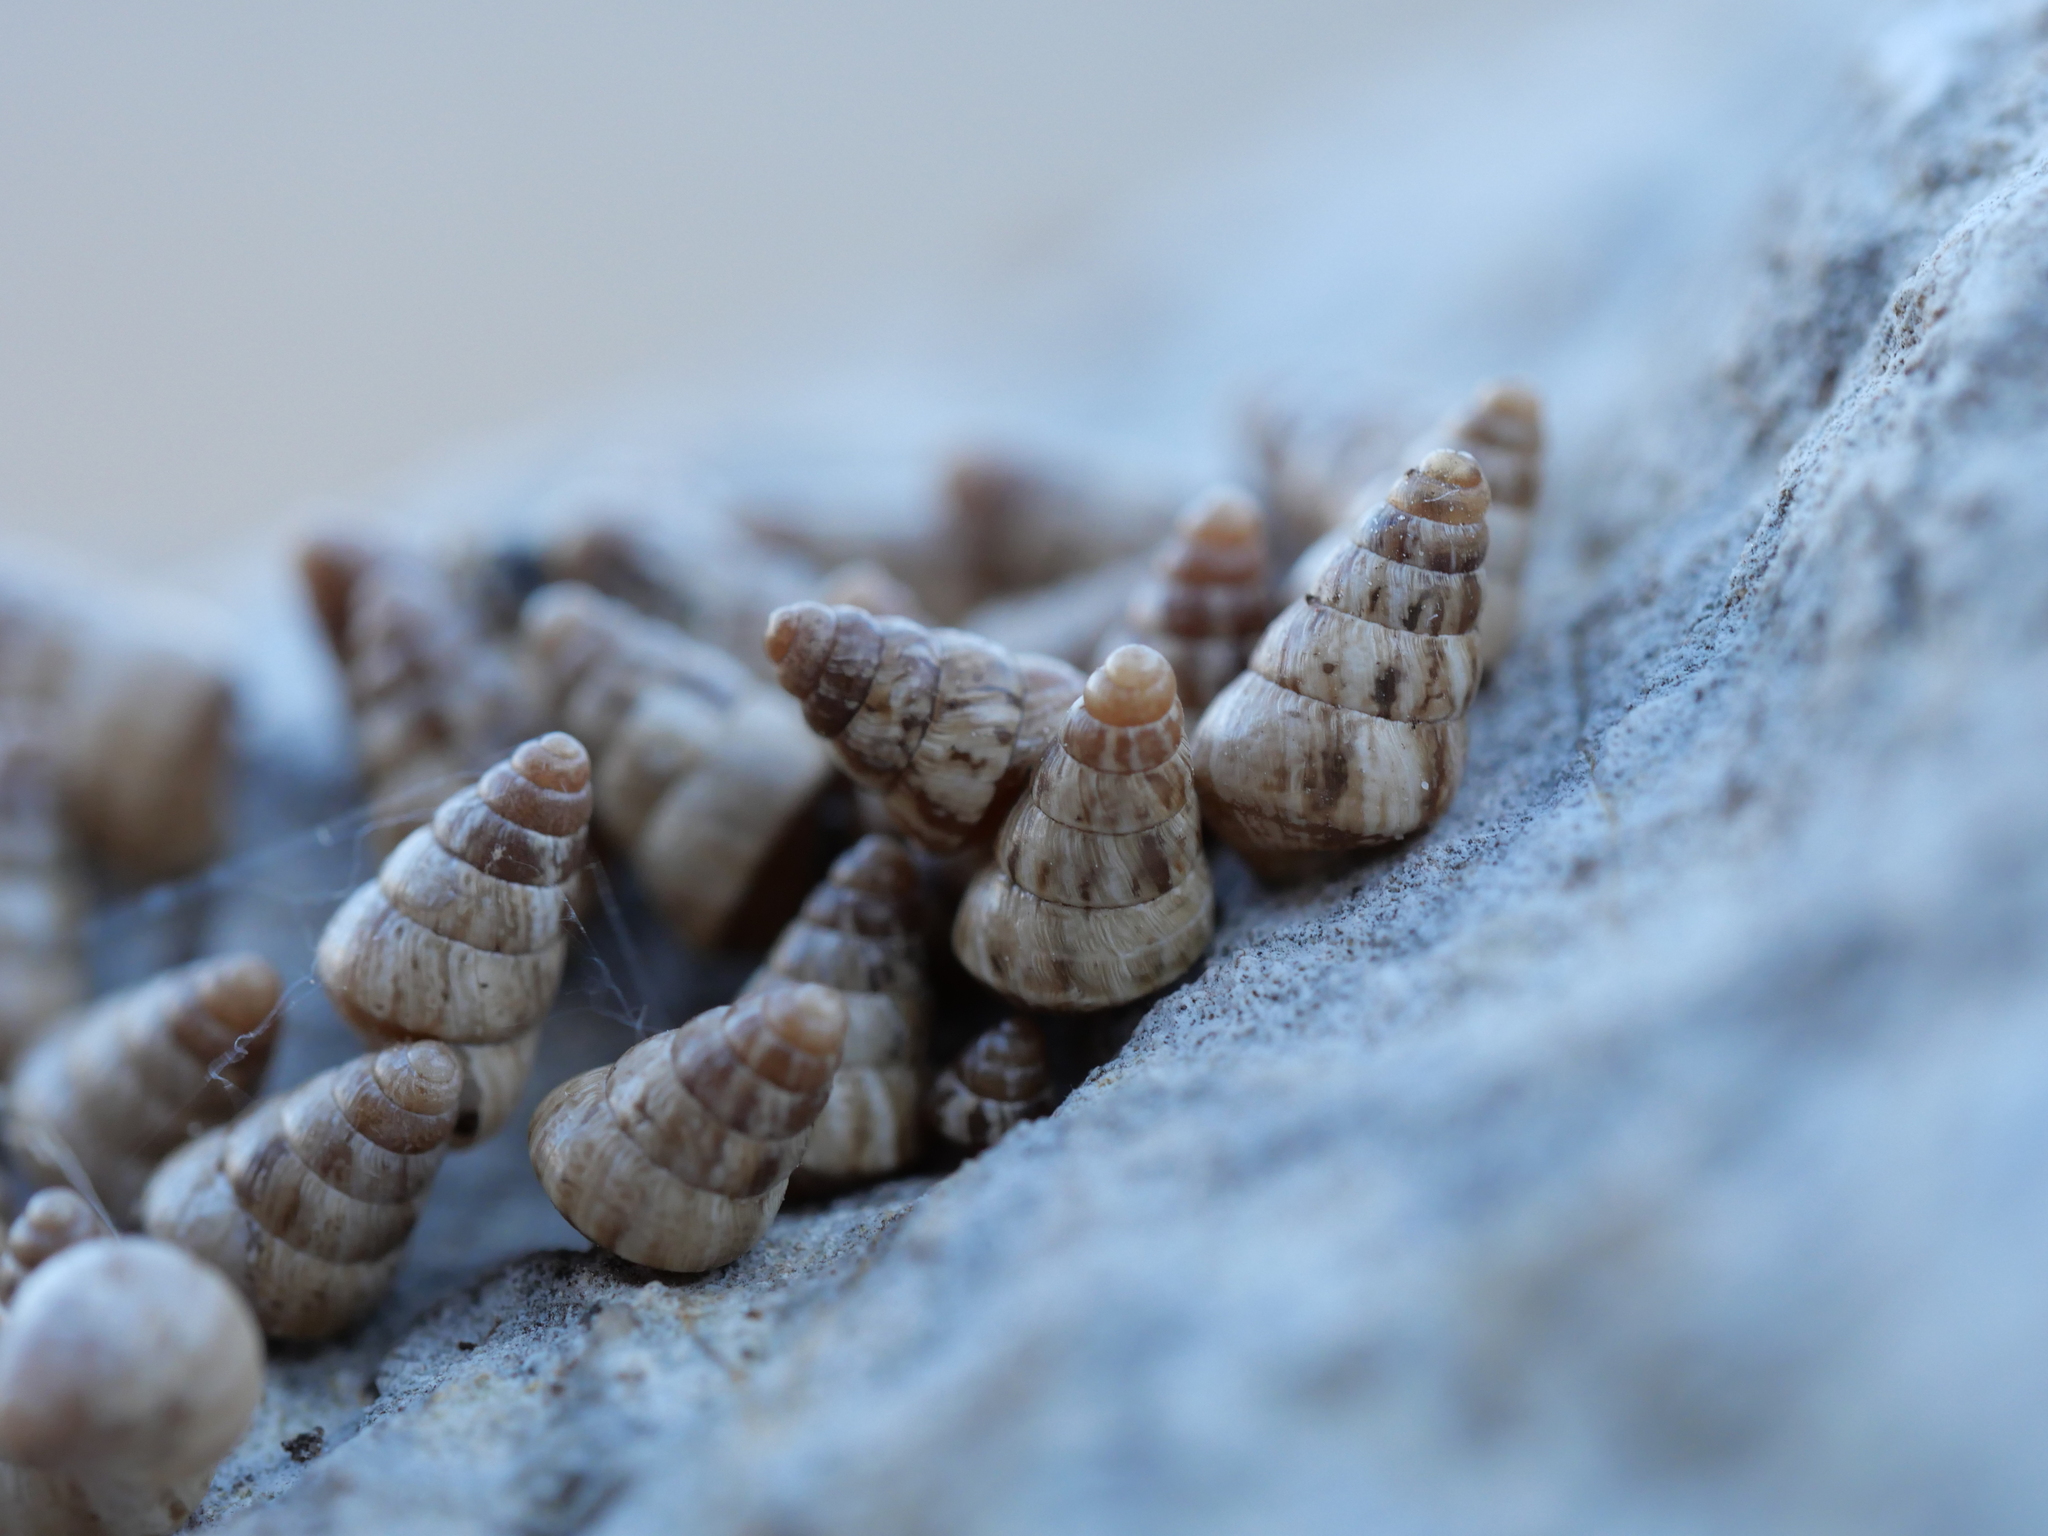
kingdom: Animalia
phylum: Mollusca
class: Gastropoda
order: Stylommatophora
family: Geomitridae
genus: Cochlicella
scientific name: Cochlicella barbara
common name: Potbellied helicellid
